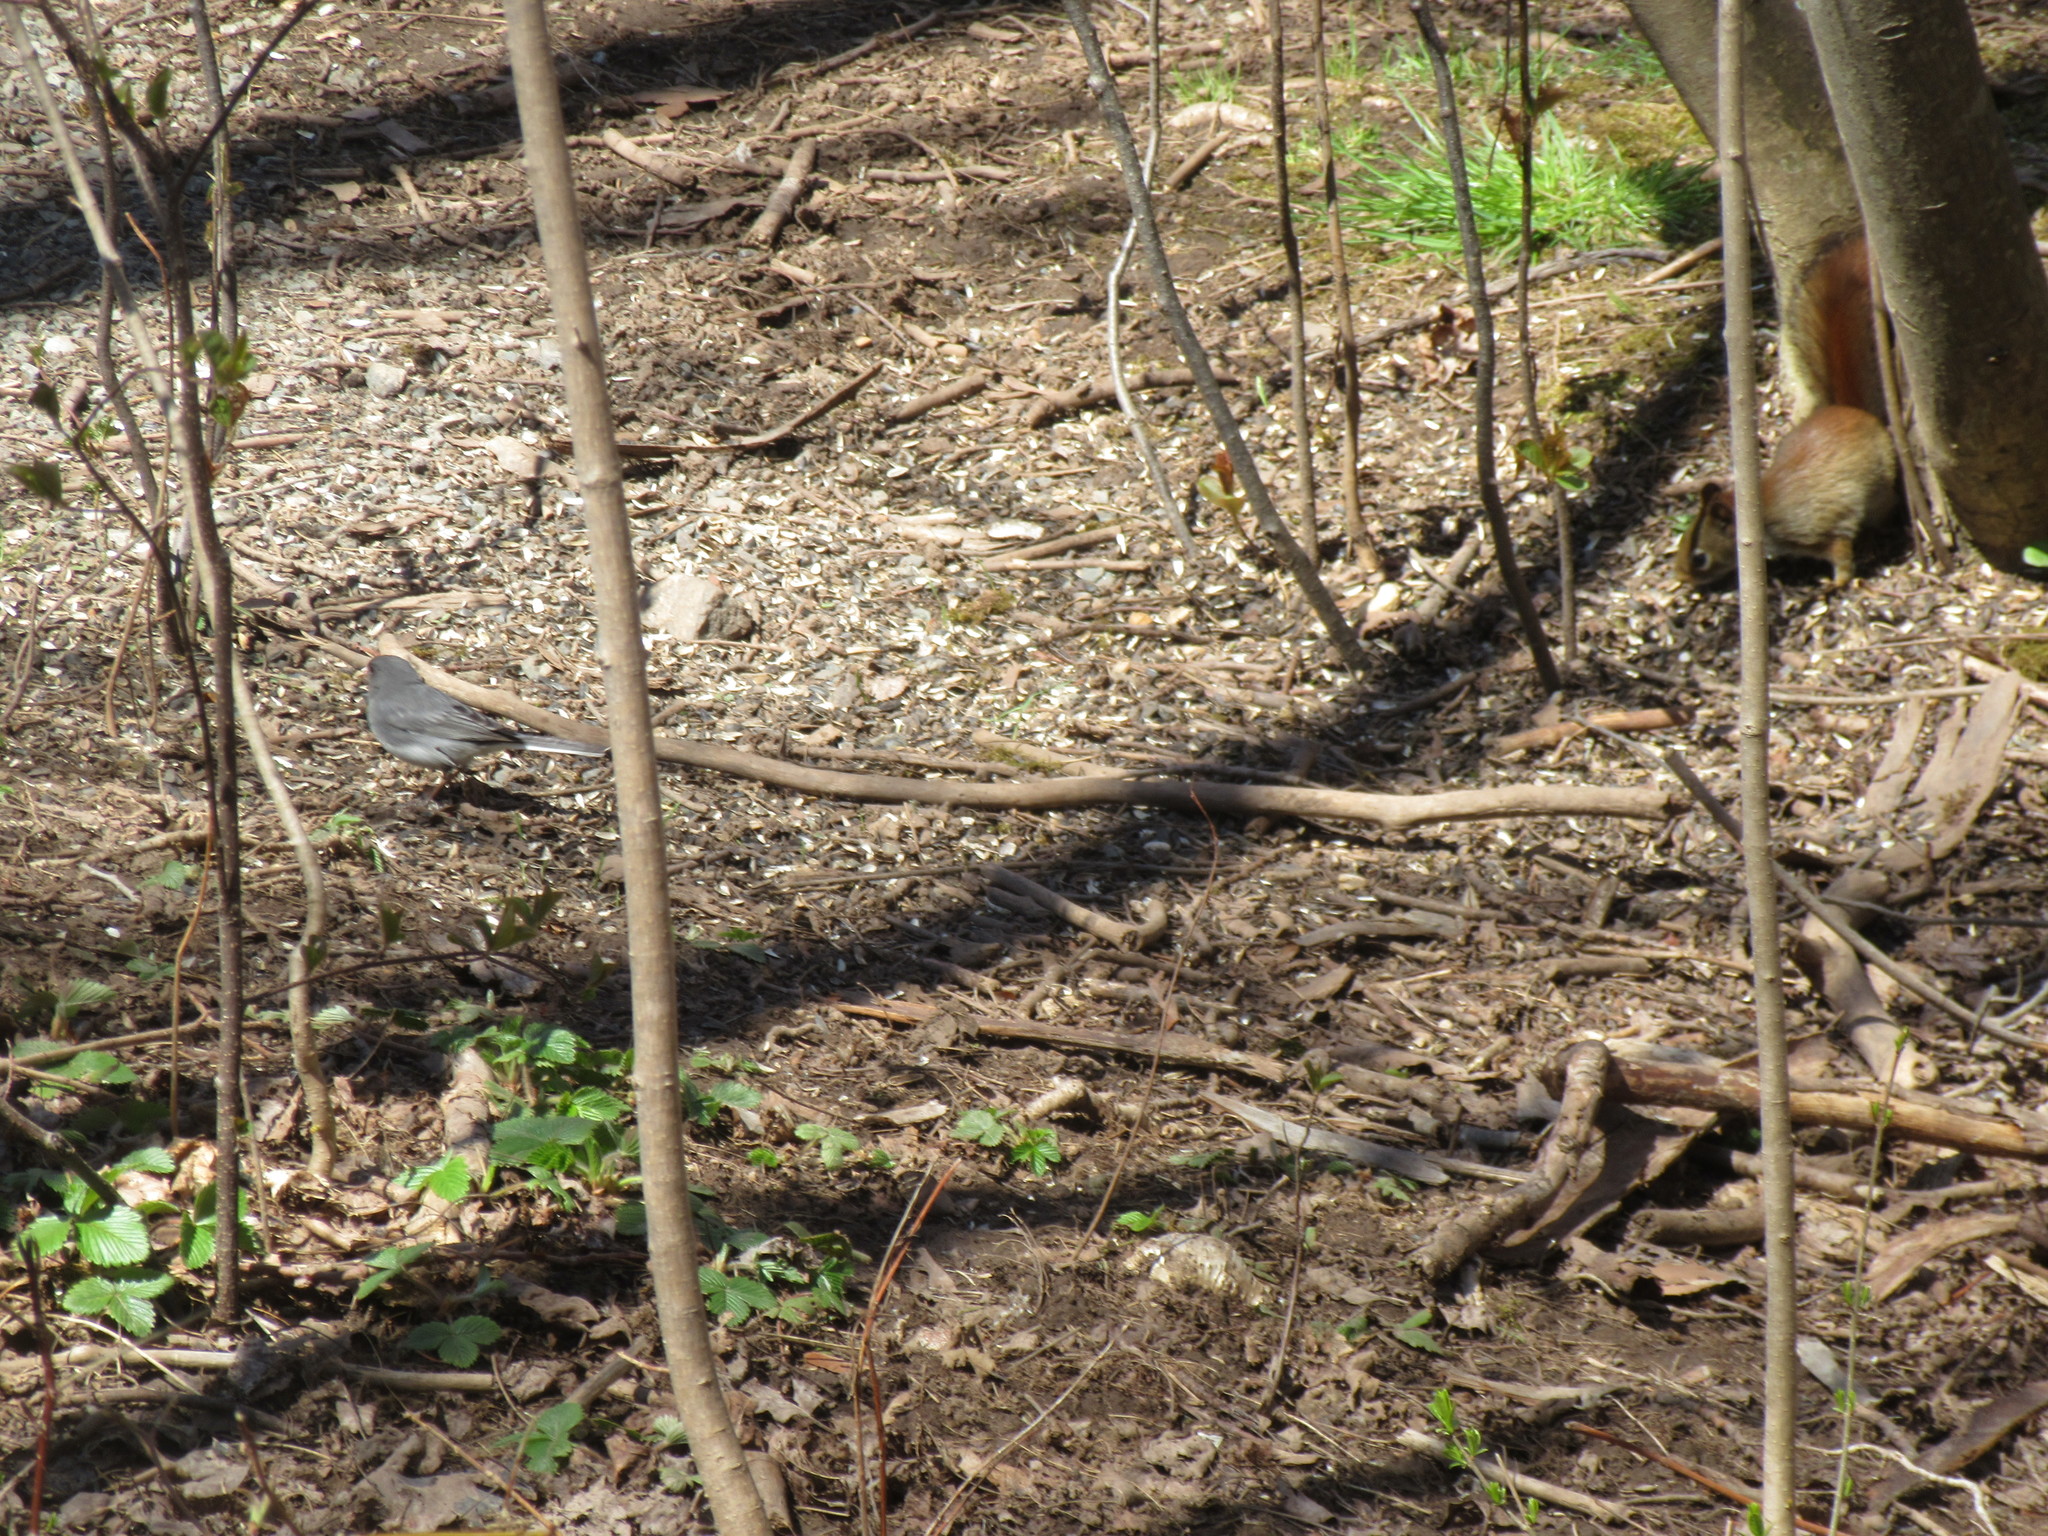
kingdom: Animalia
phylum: Chordata
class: Aves
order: Passeriformes
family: Passerellidae
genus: Junco
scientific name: Junco hyemalis
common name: Dark-eyed junco
